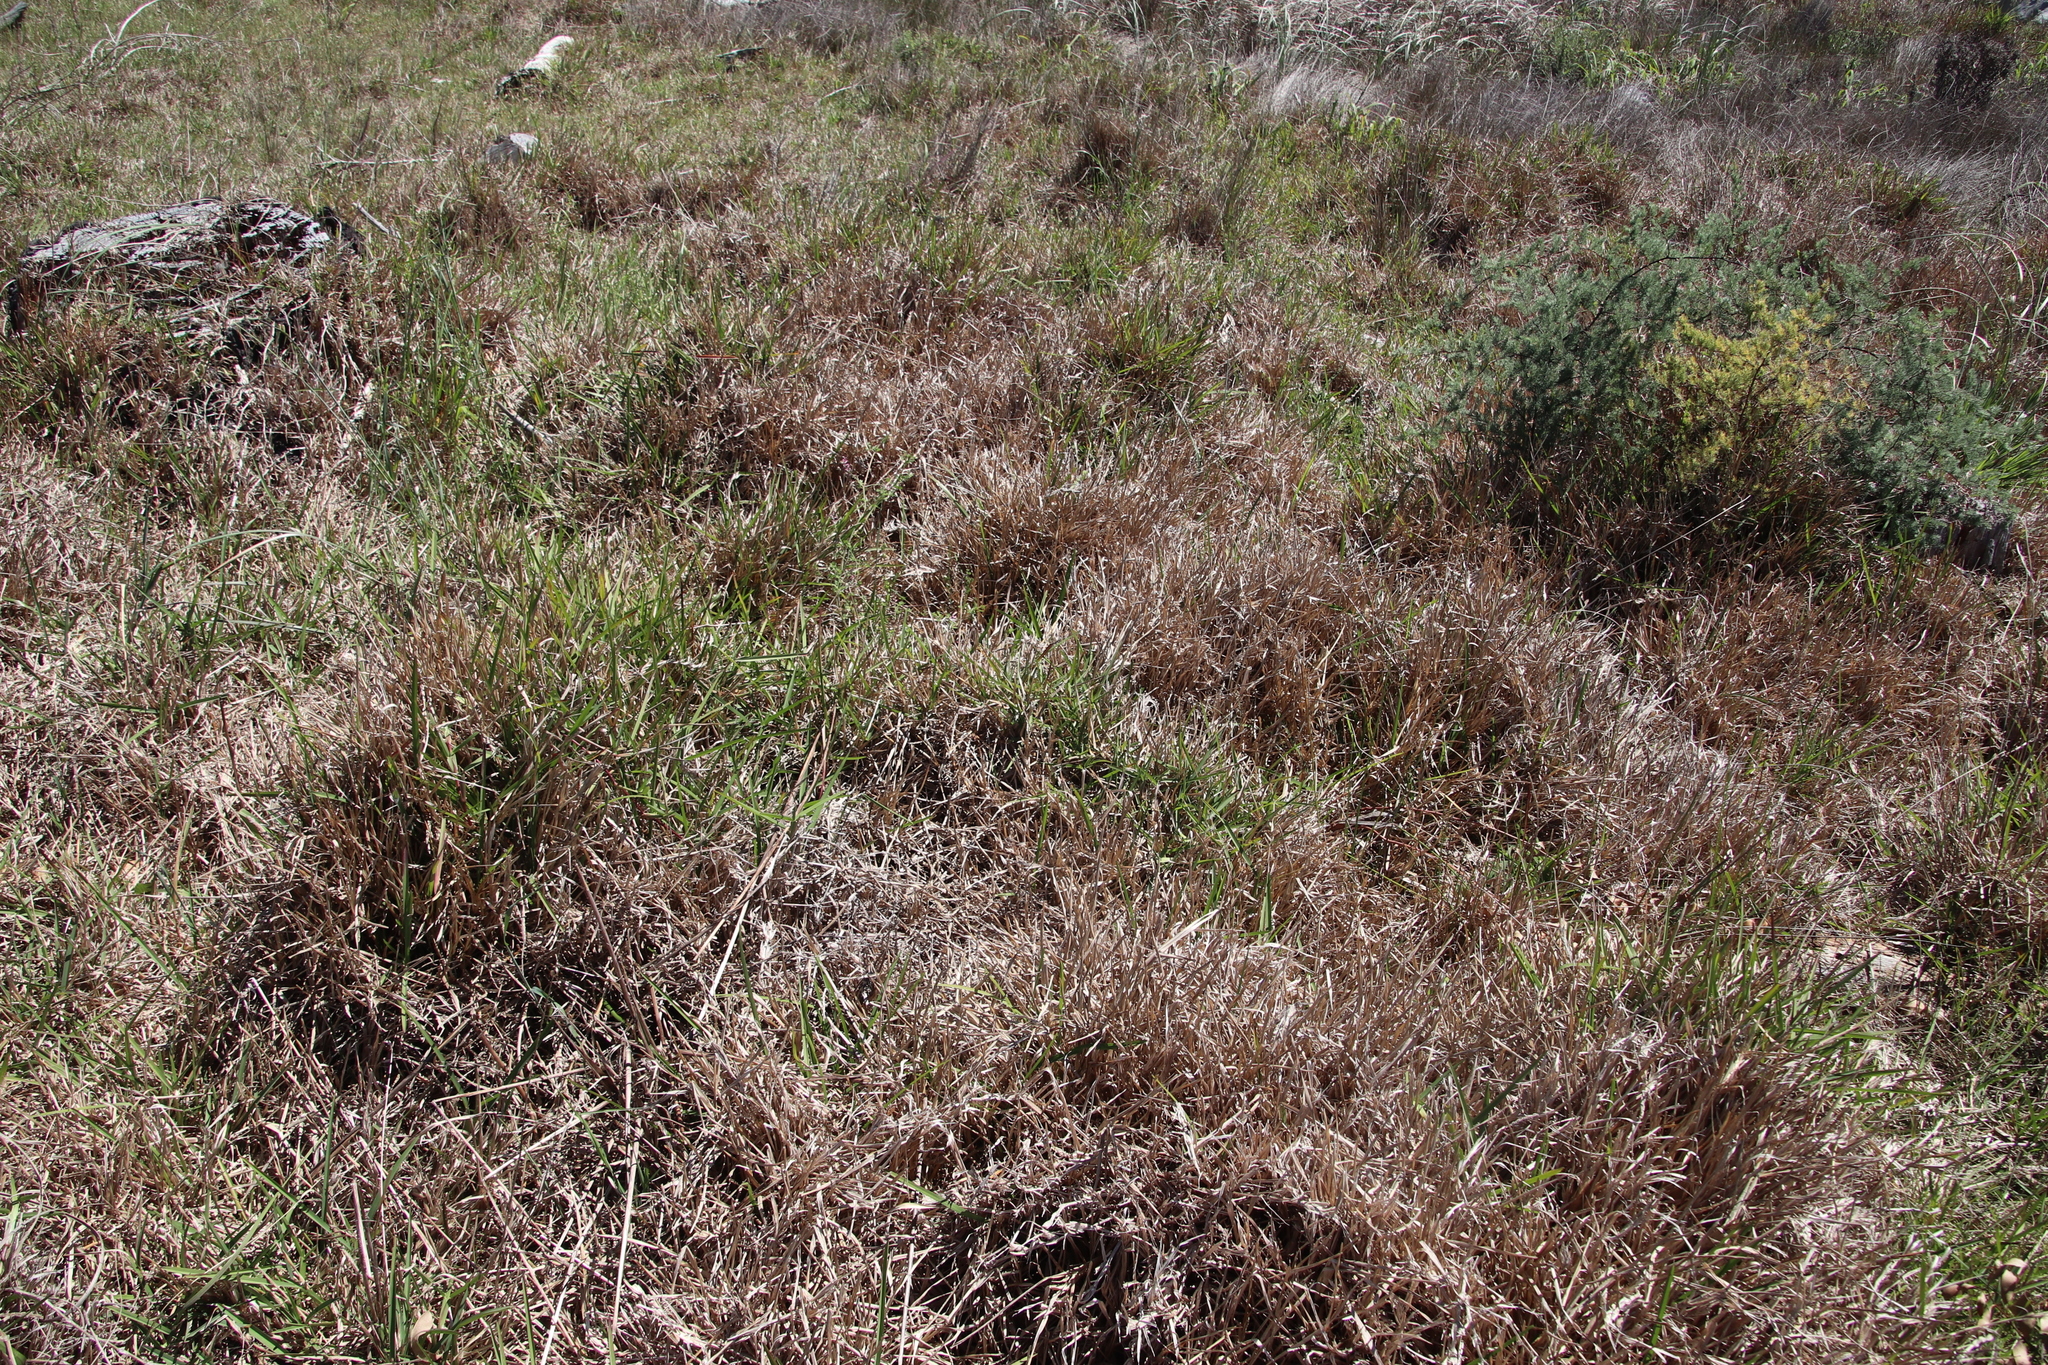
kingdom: Plantae
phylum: Tracheophyta
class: Liliopsida
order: Poales
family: Poaceae
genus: Stenotaphrum
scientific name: Stenotaphrum secundatum
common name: St. augustine grass
